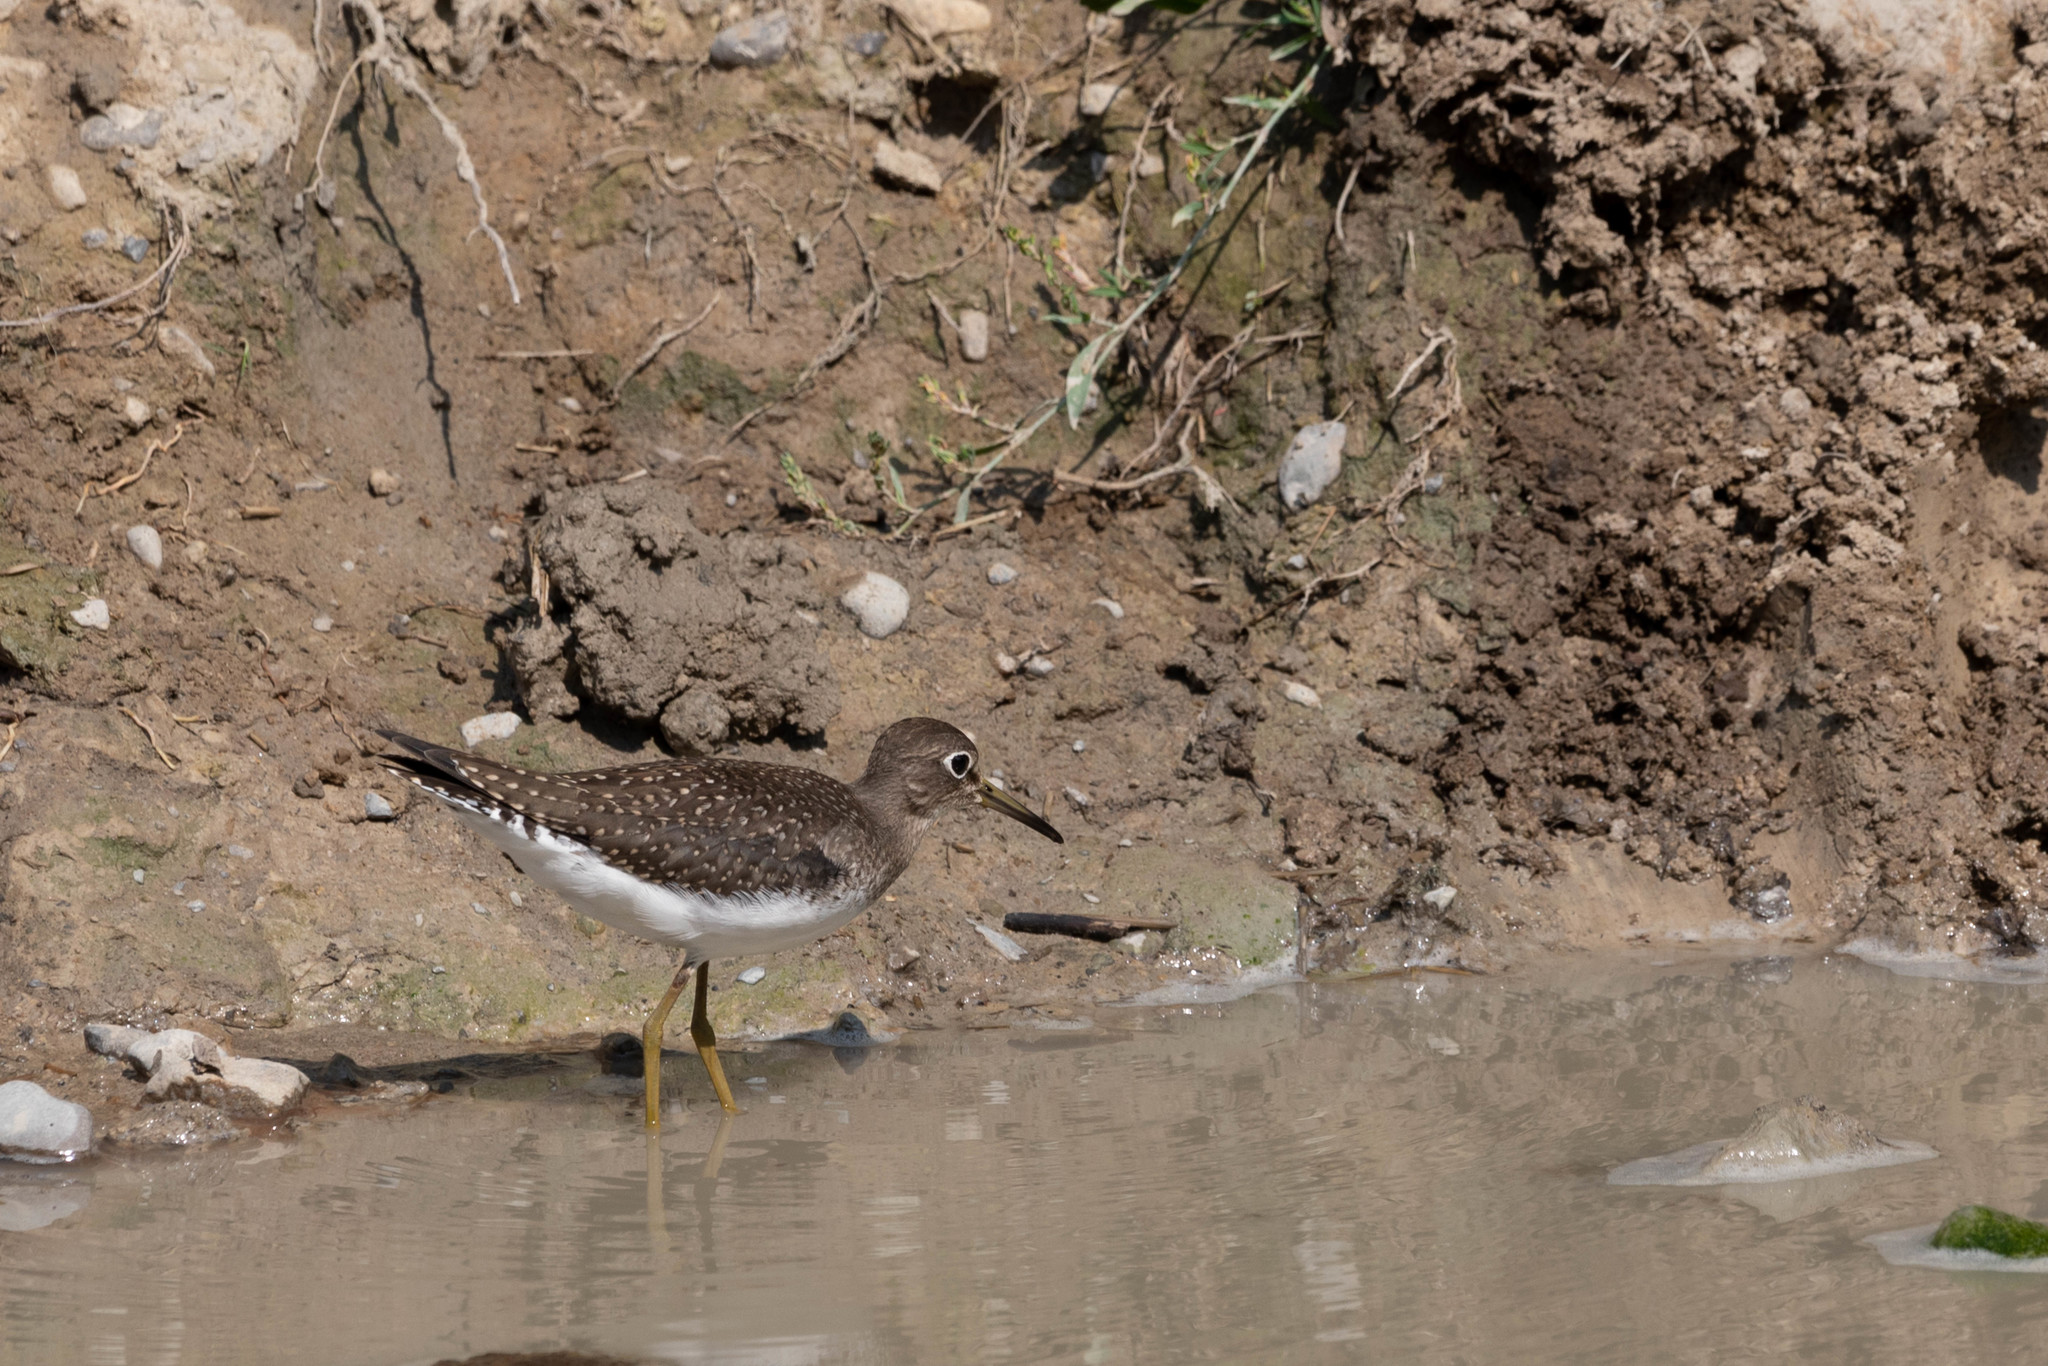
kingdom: Animalia
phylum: Chordata
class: Aves
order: Charadriiformes
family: Scolopacidae
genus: Tringa
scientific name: Tringa solitaria
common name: Solitary sandpiper
